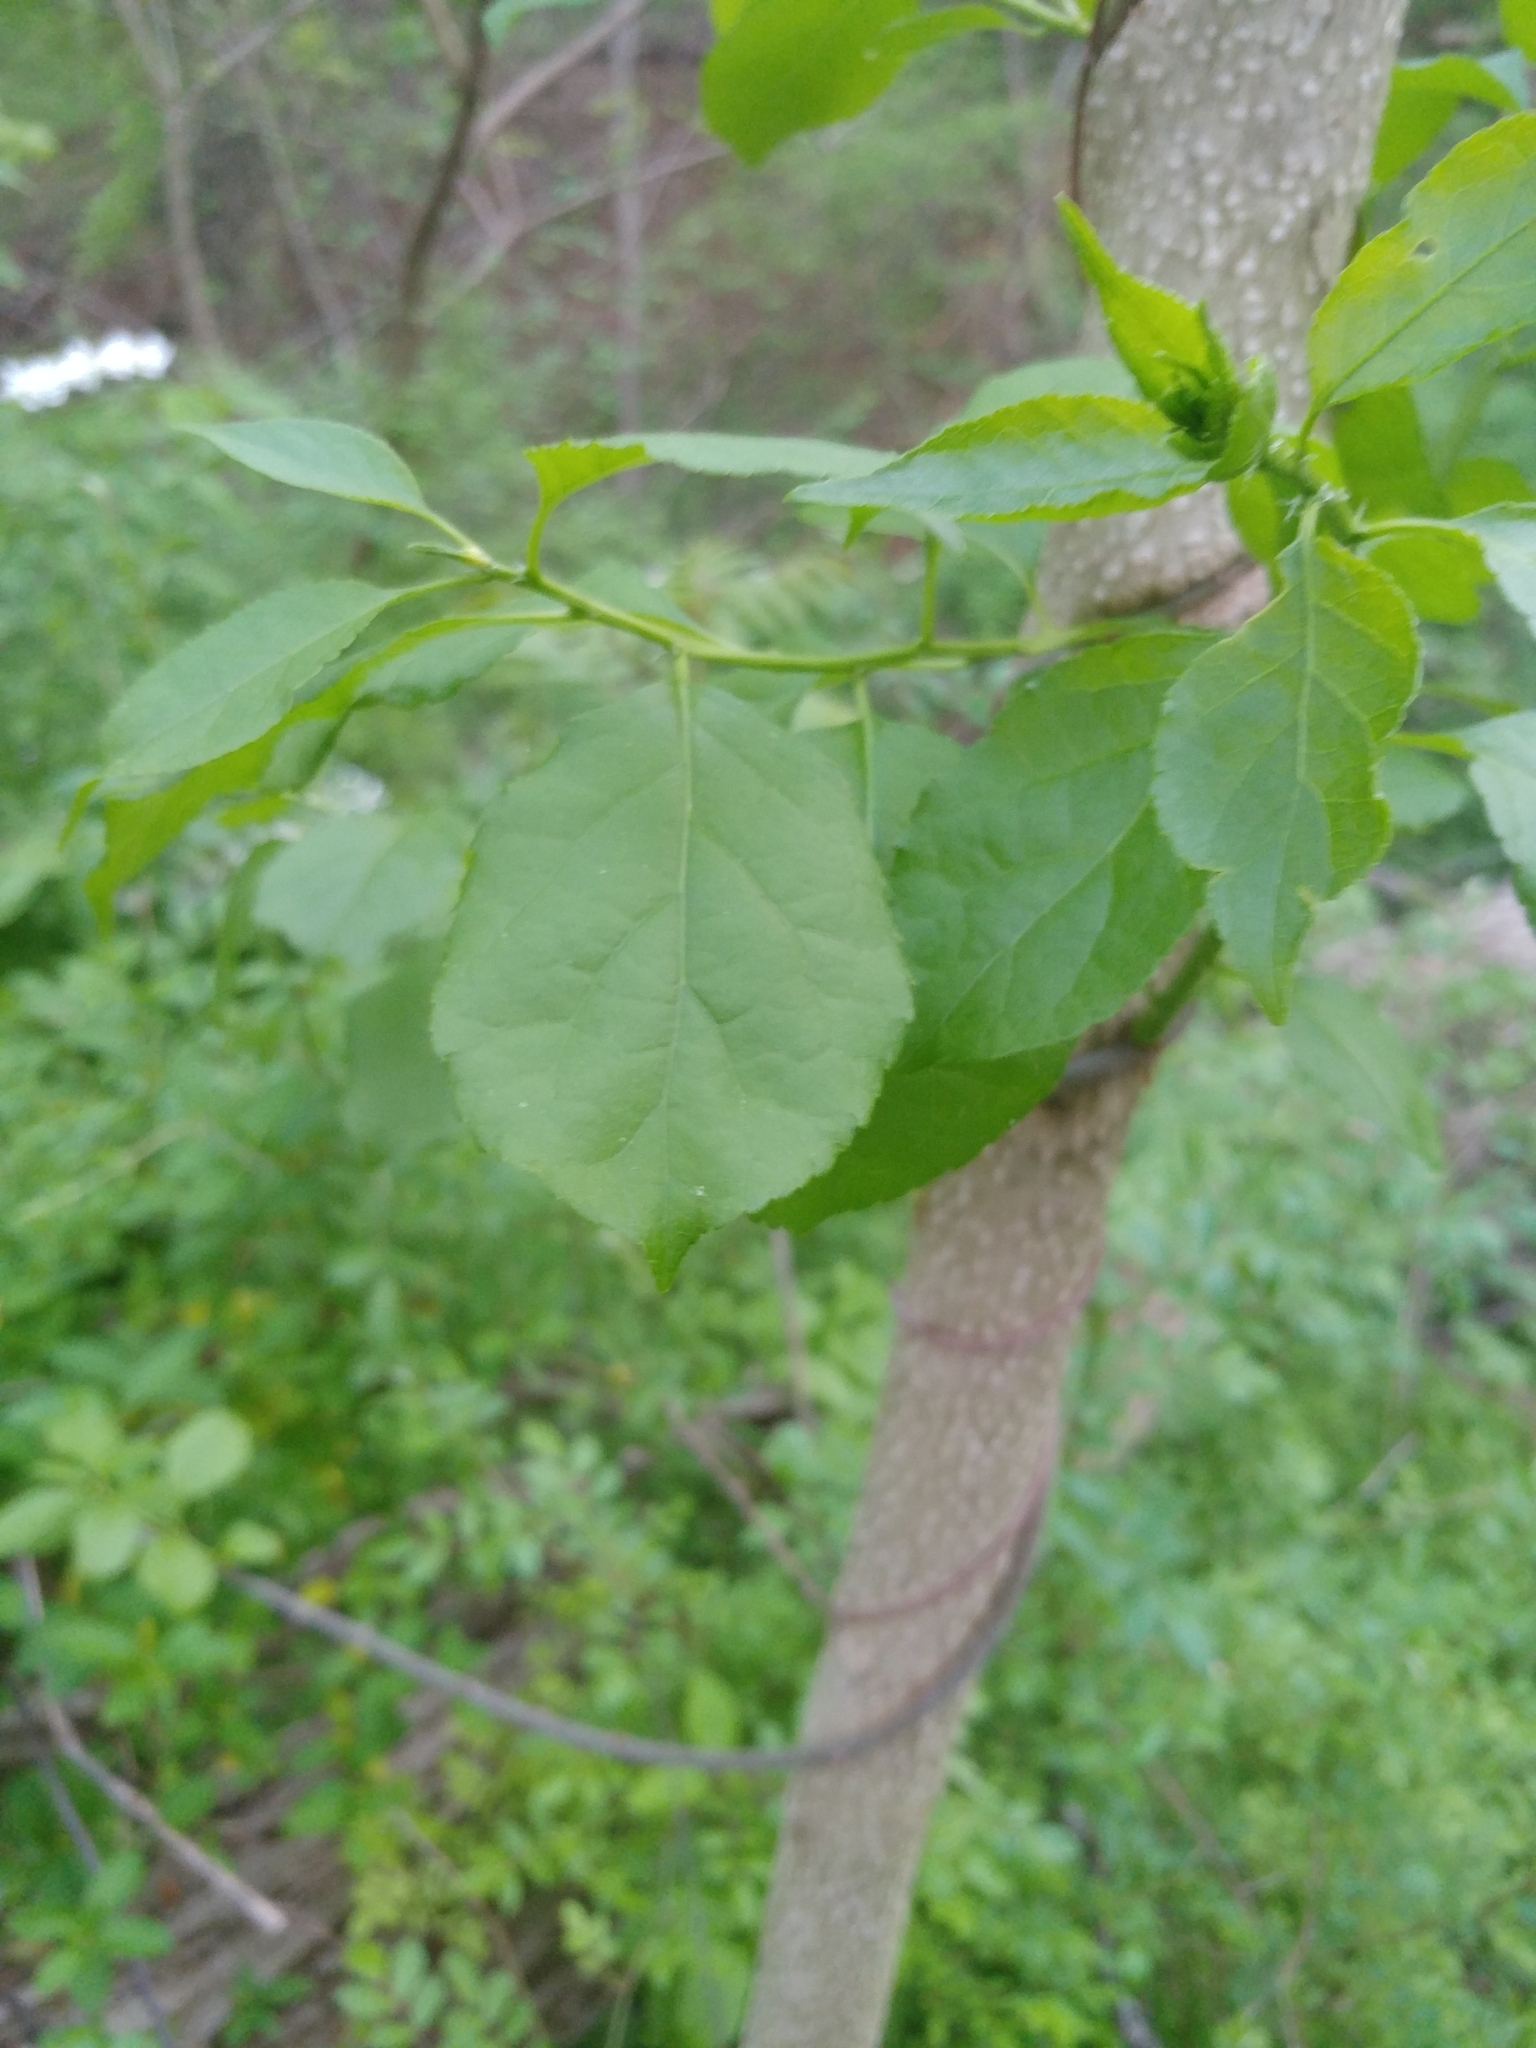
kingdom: Plantae
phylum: Tracheophyta
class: Magnoliopsida
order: Celastrales
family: Celastraceae
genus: Celastrus
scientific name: Celastrus orbiculatus
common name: Oriental bittersweet
